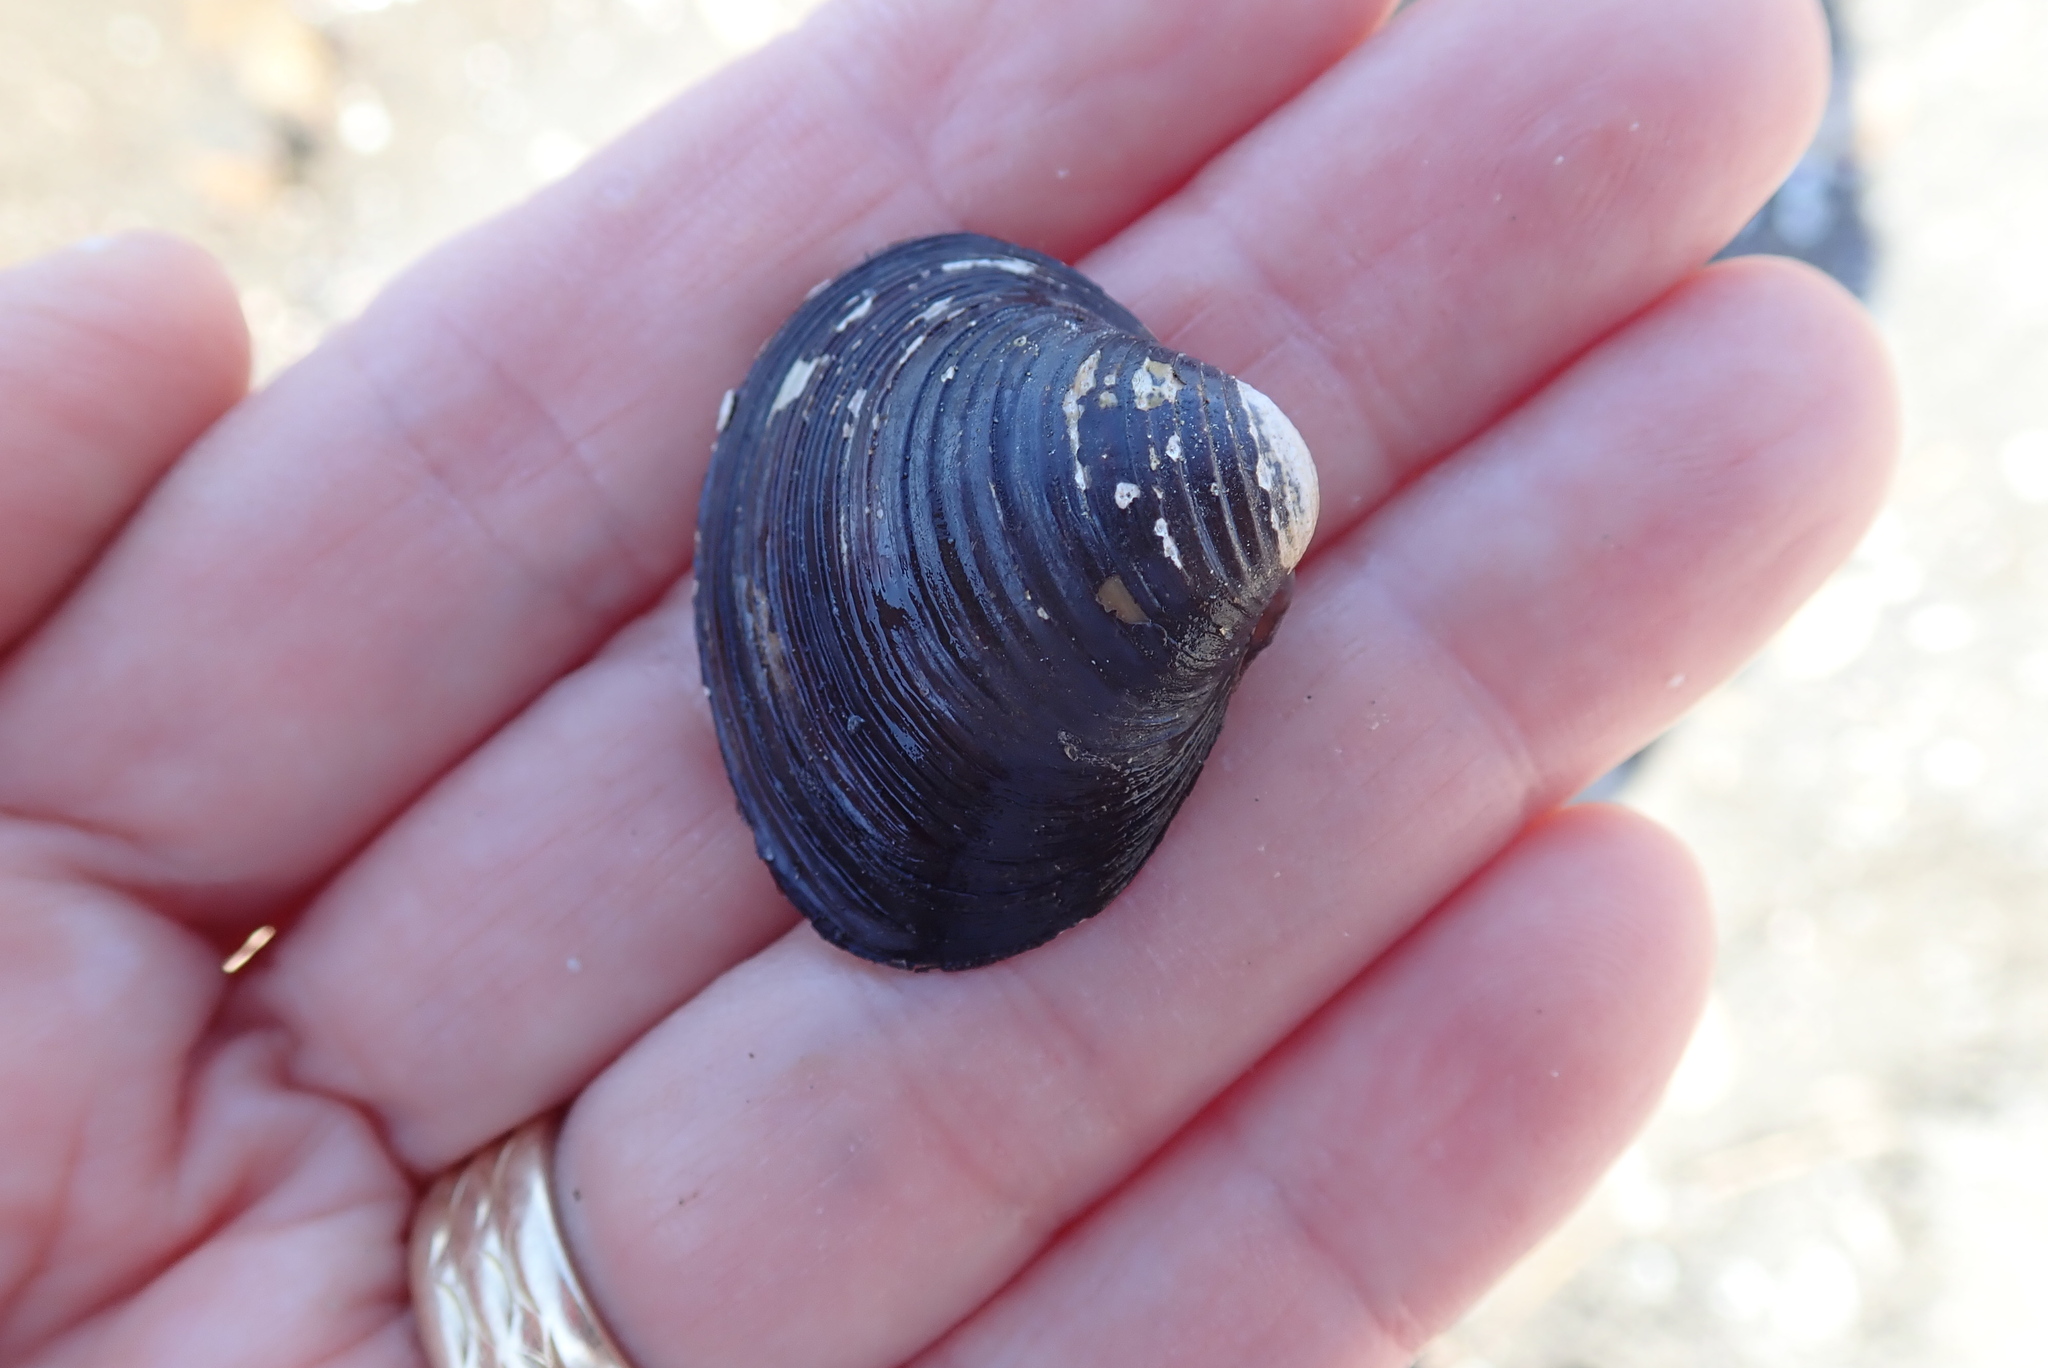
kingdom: Animalia
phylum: Mollusca
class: Bivalvia
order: Venerida
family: Cyrenidae
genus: Corbicula
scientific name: Corbicula fluminea
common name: Asian clam
